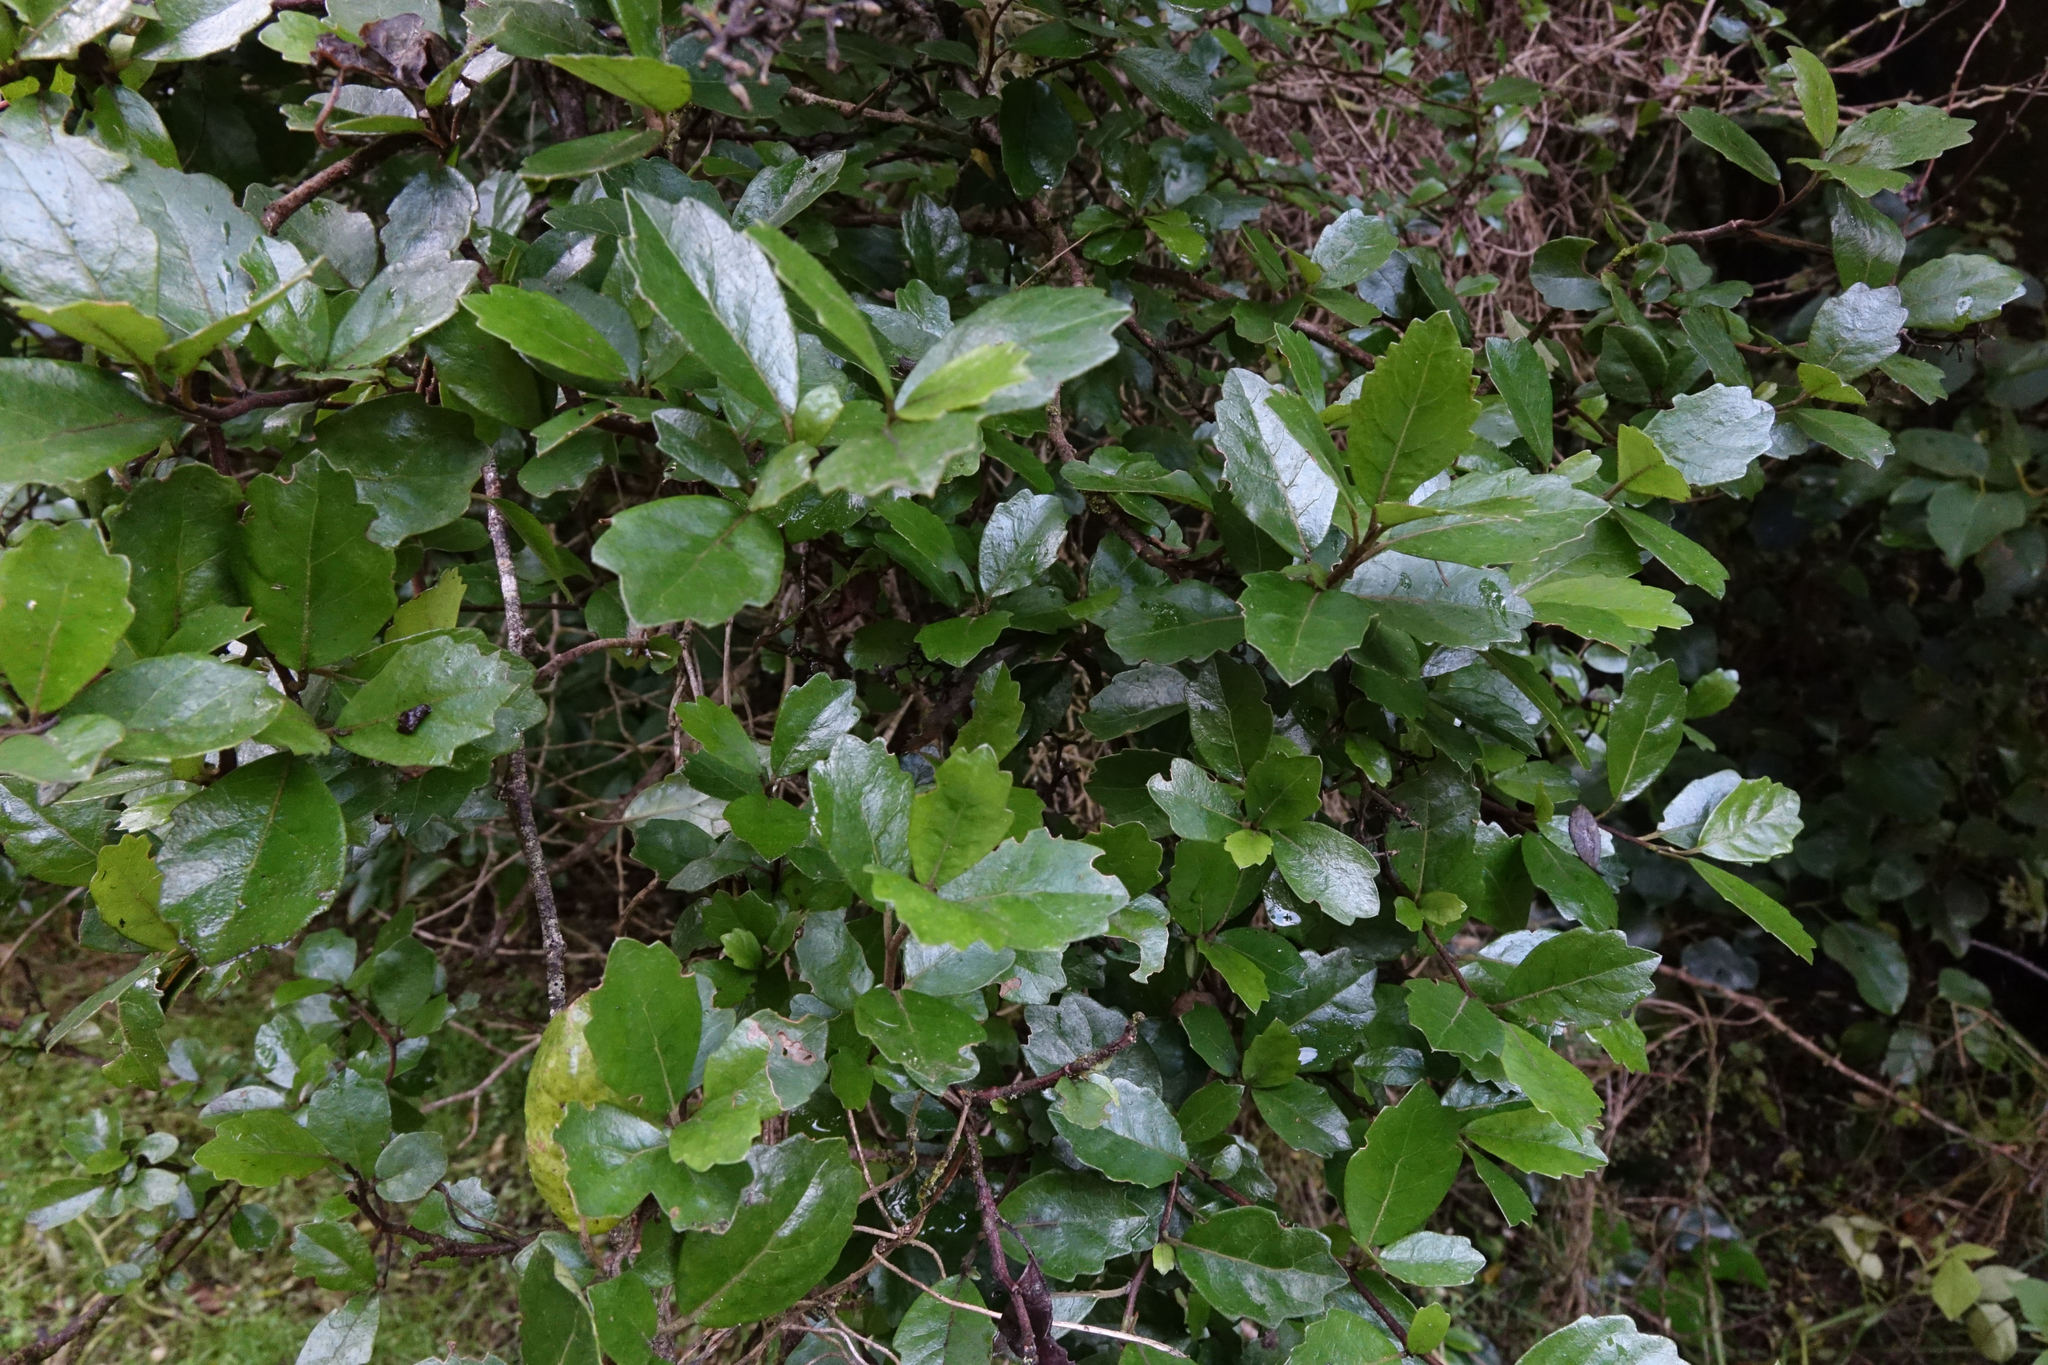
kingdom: Plantae
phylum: Tracheophyta
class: Magnoliopsida
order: Apiales
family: Pennantiaceae
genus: Pennantia
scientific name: Pennantia corymbosa
